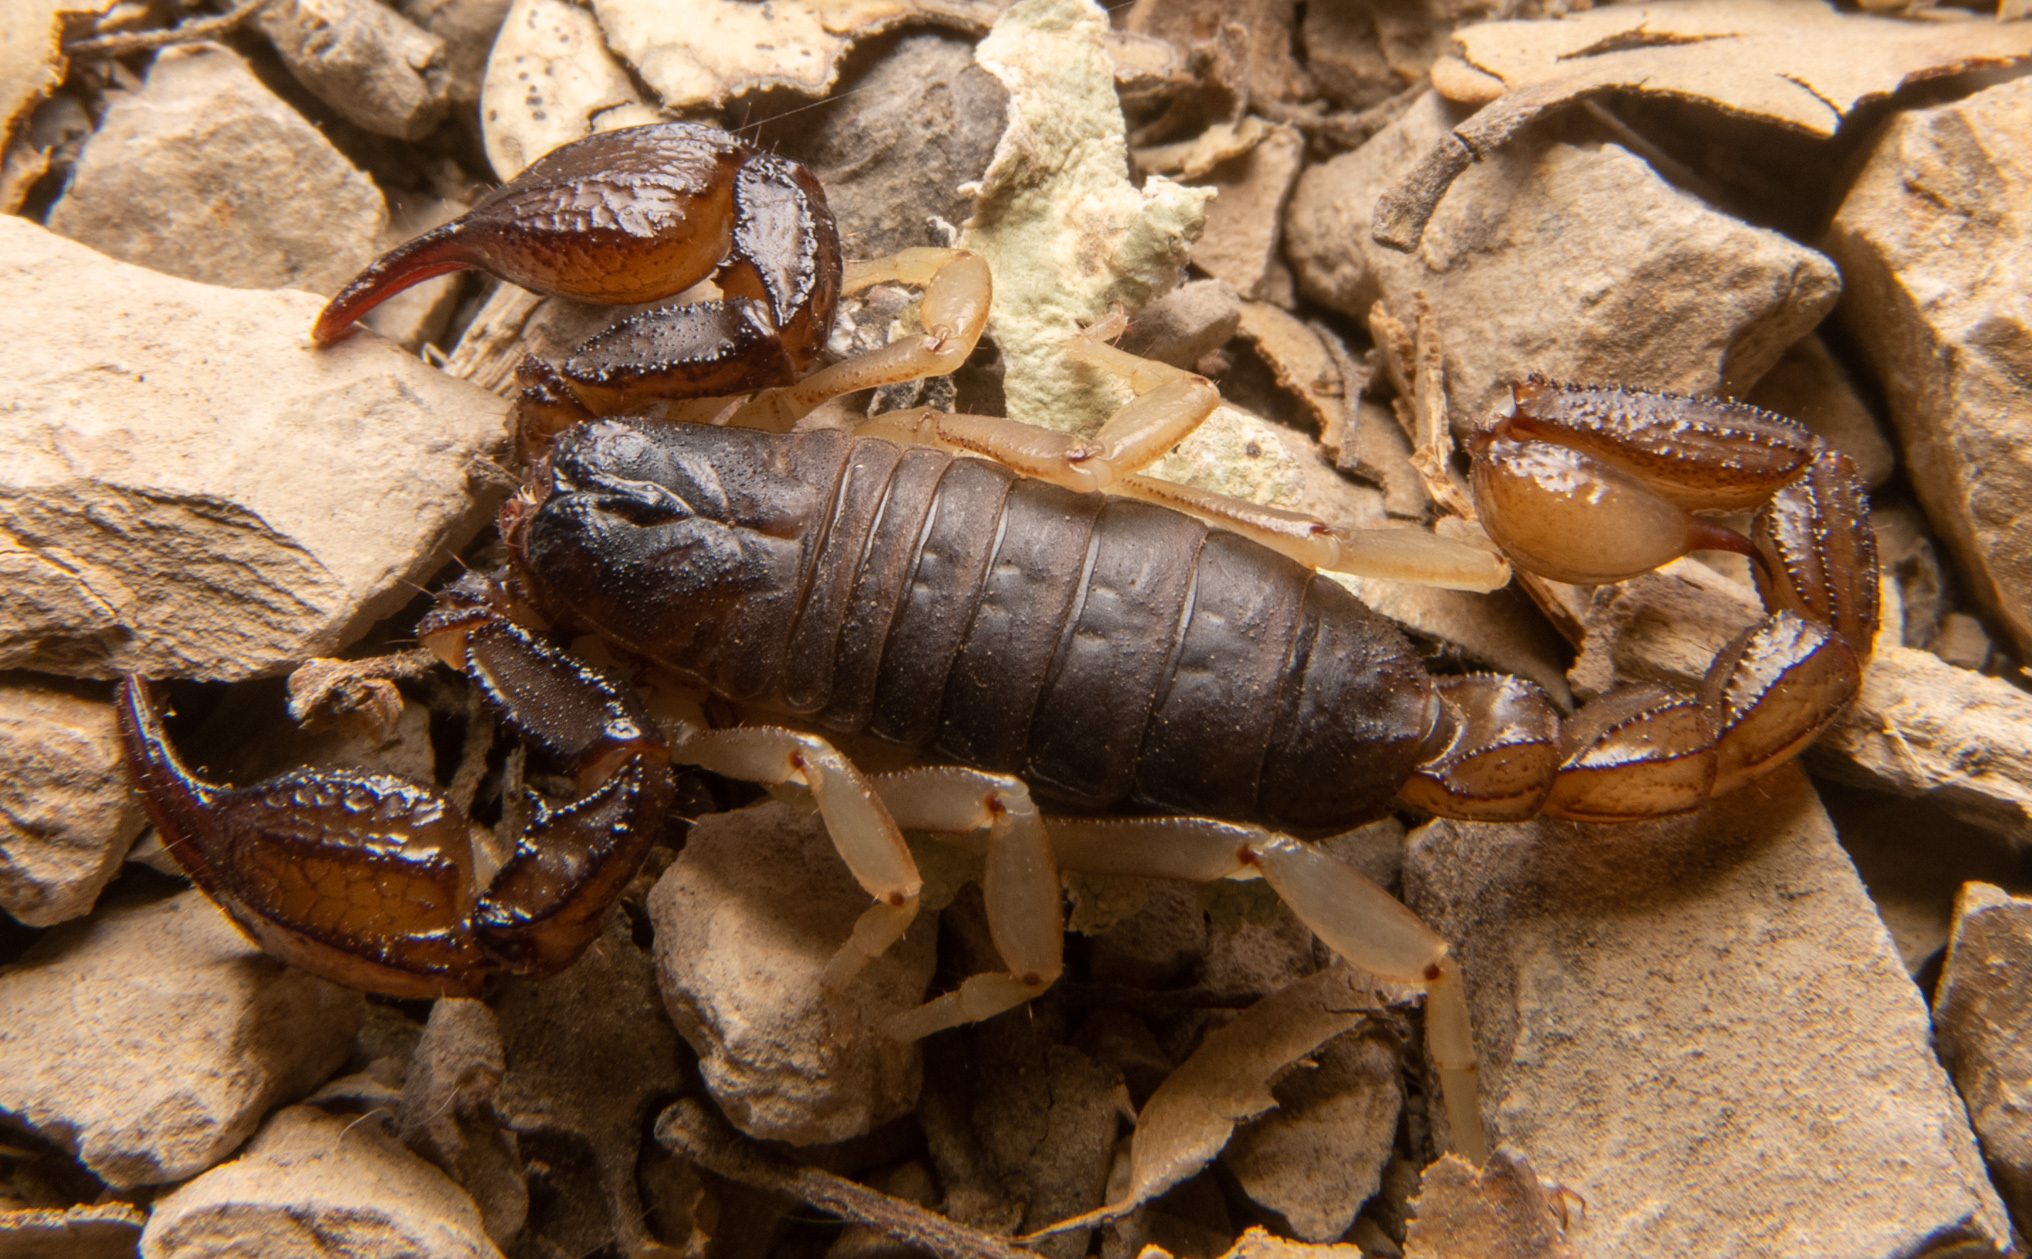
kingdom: Animalia
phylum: Arthropoda
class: Arachnida
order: Scorpiones
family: Chactidae
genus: Uroctonus
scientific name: Uroctonus mordax
